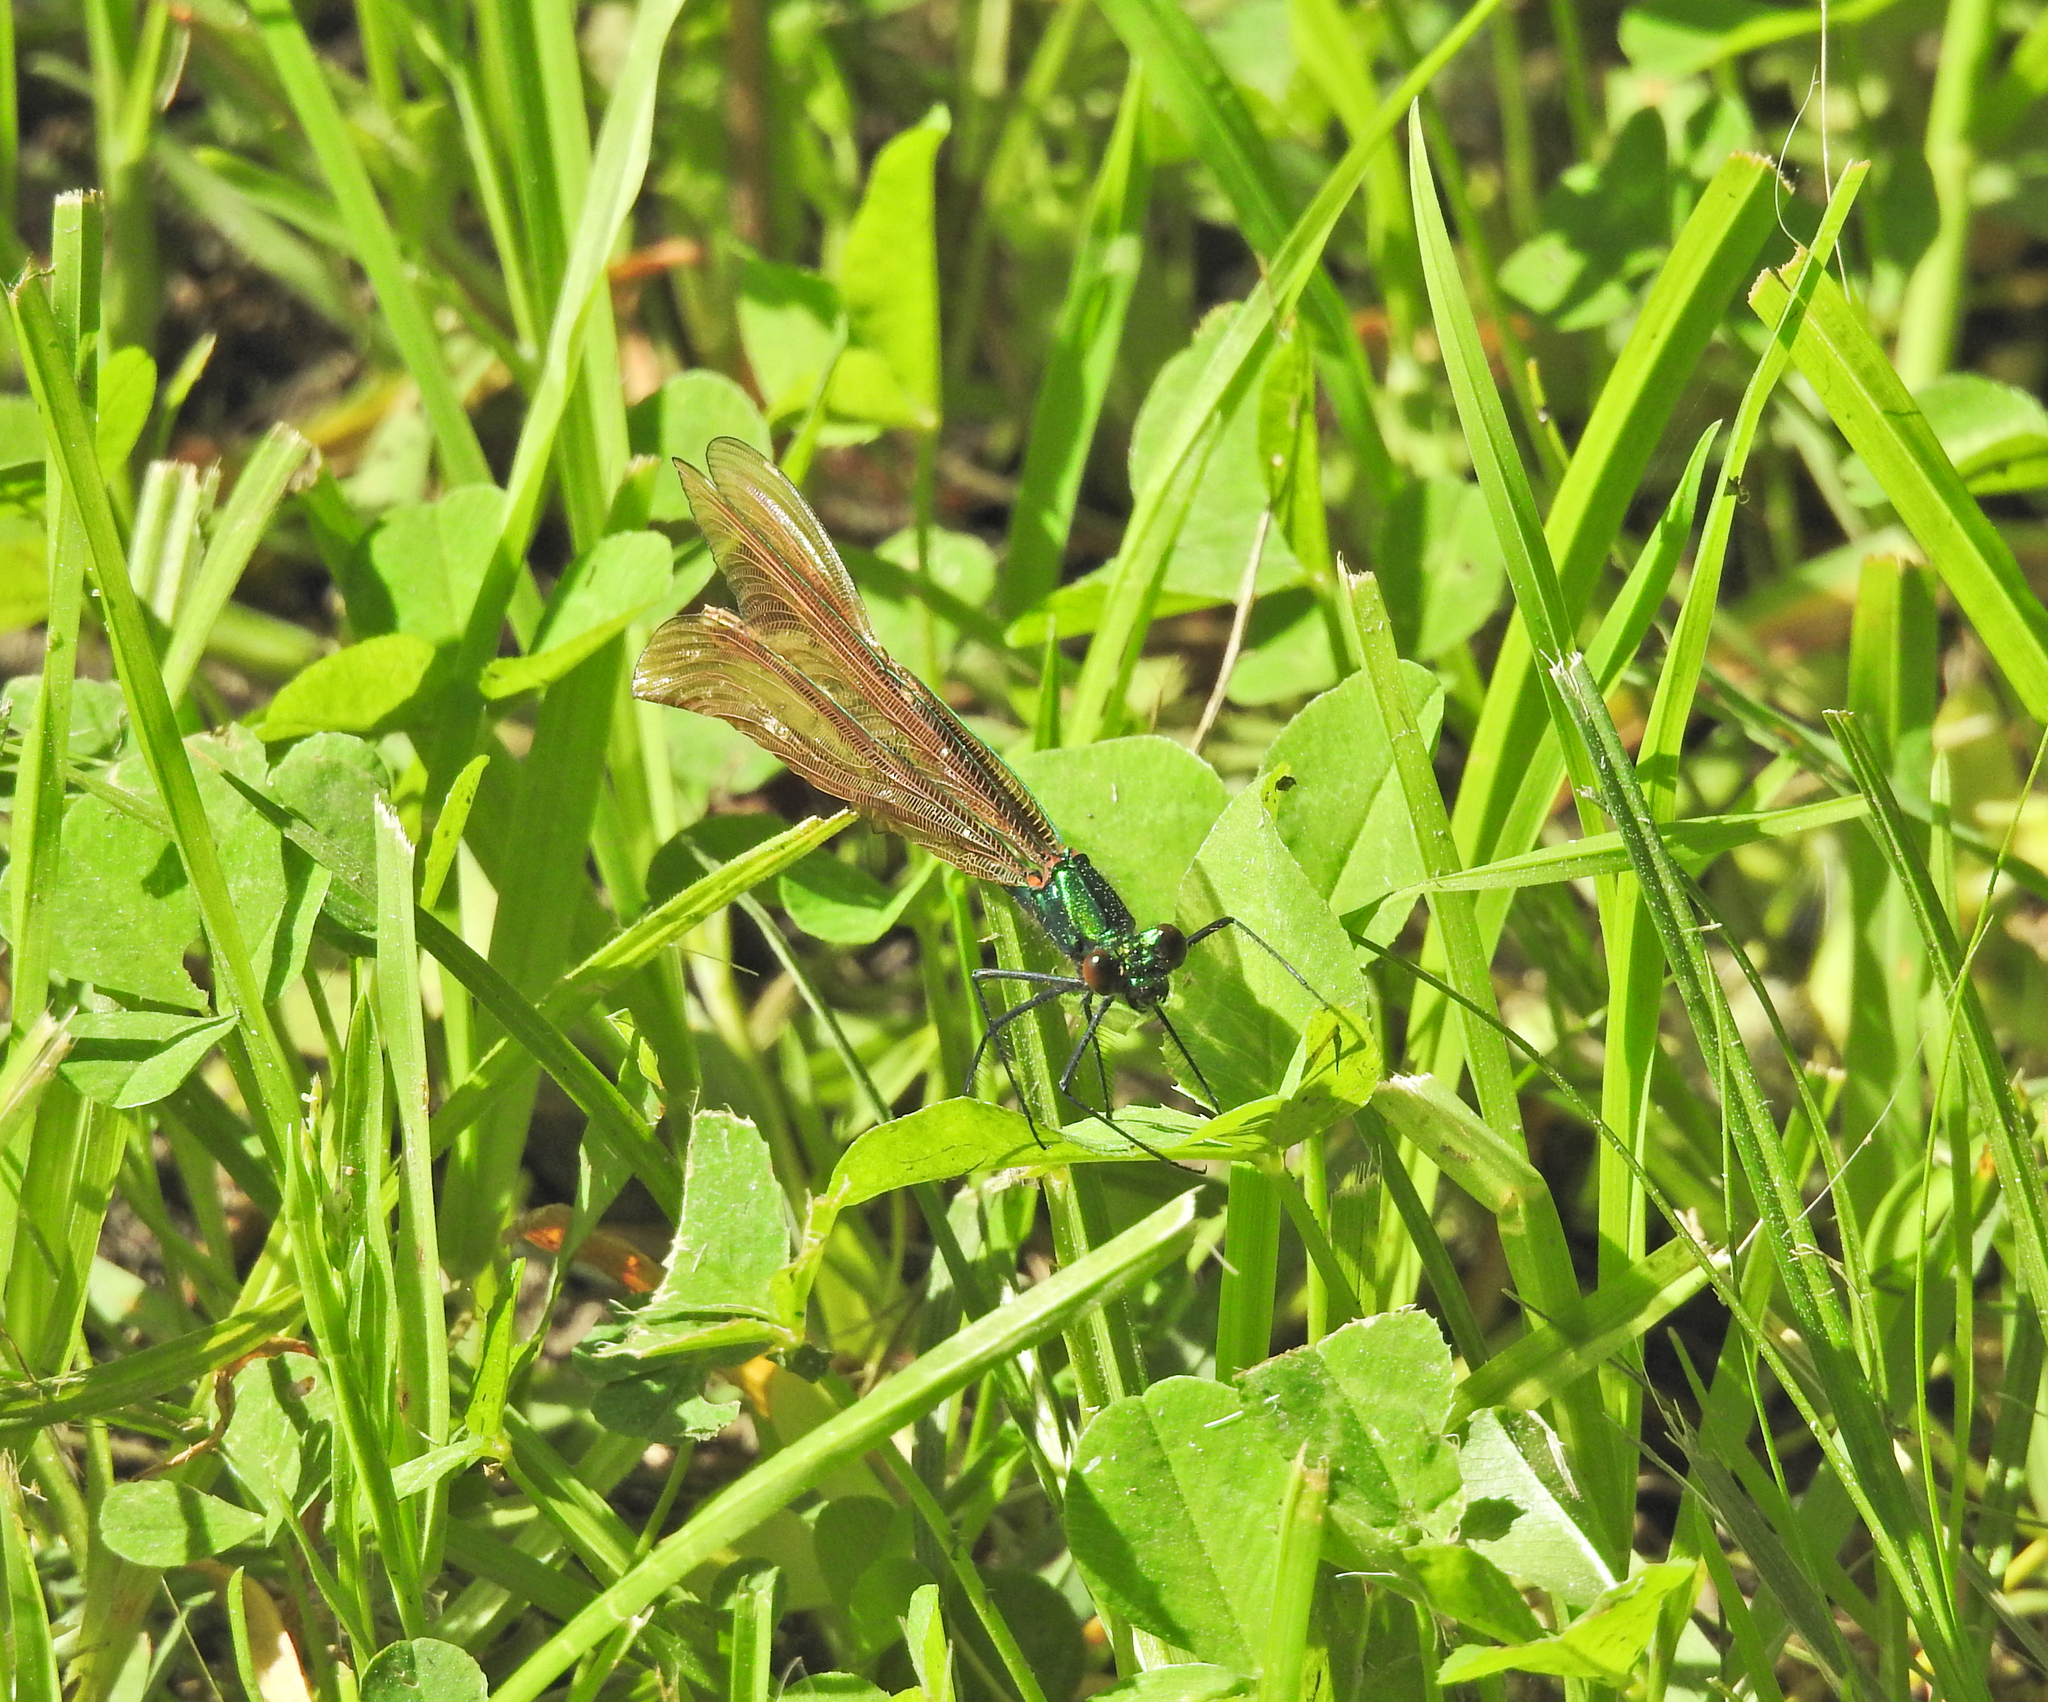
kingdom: Animalia
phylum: Arthropoda
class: Insecta
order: Odonata
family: Calopterygidae
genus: Calopteryx
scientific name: Calopteryx virgo
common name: Beautiful demoiselle
